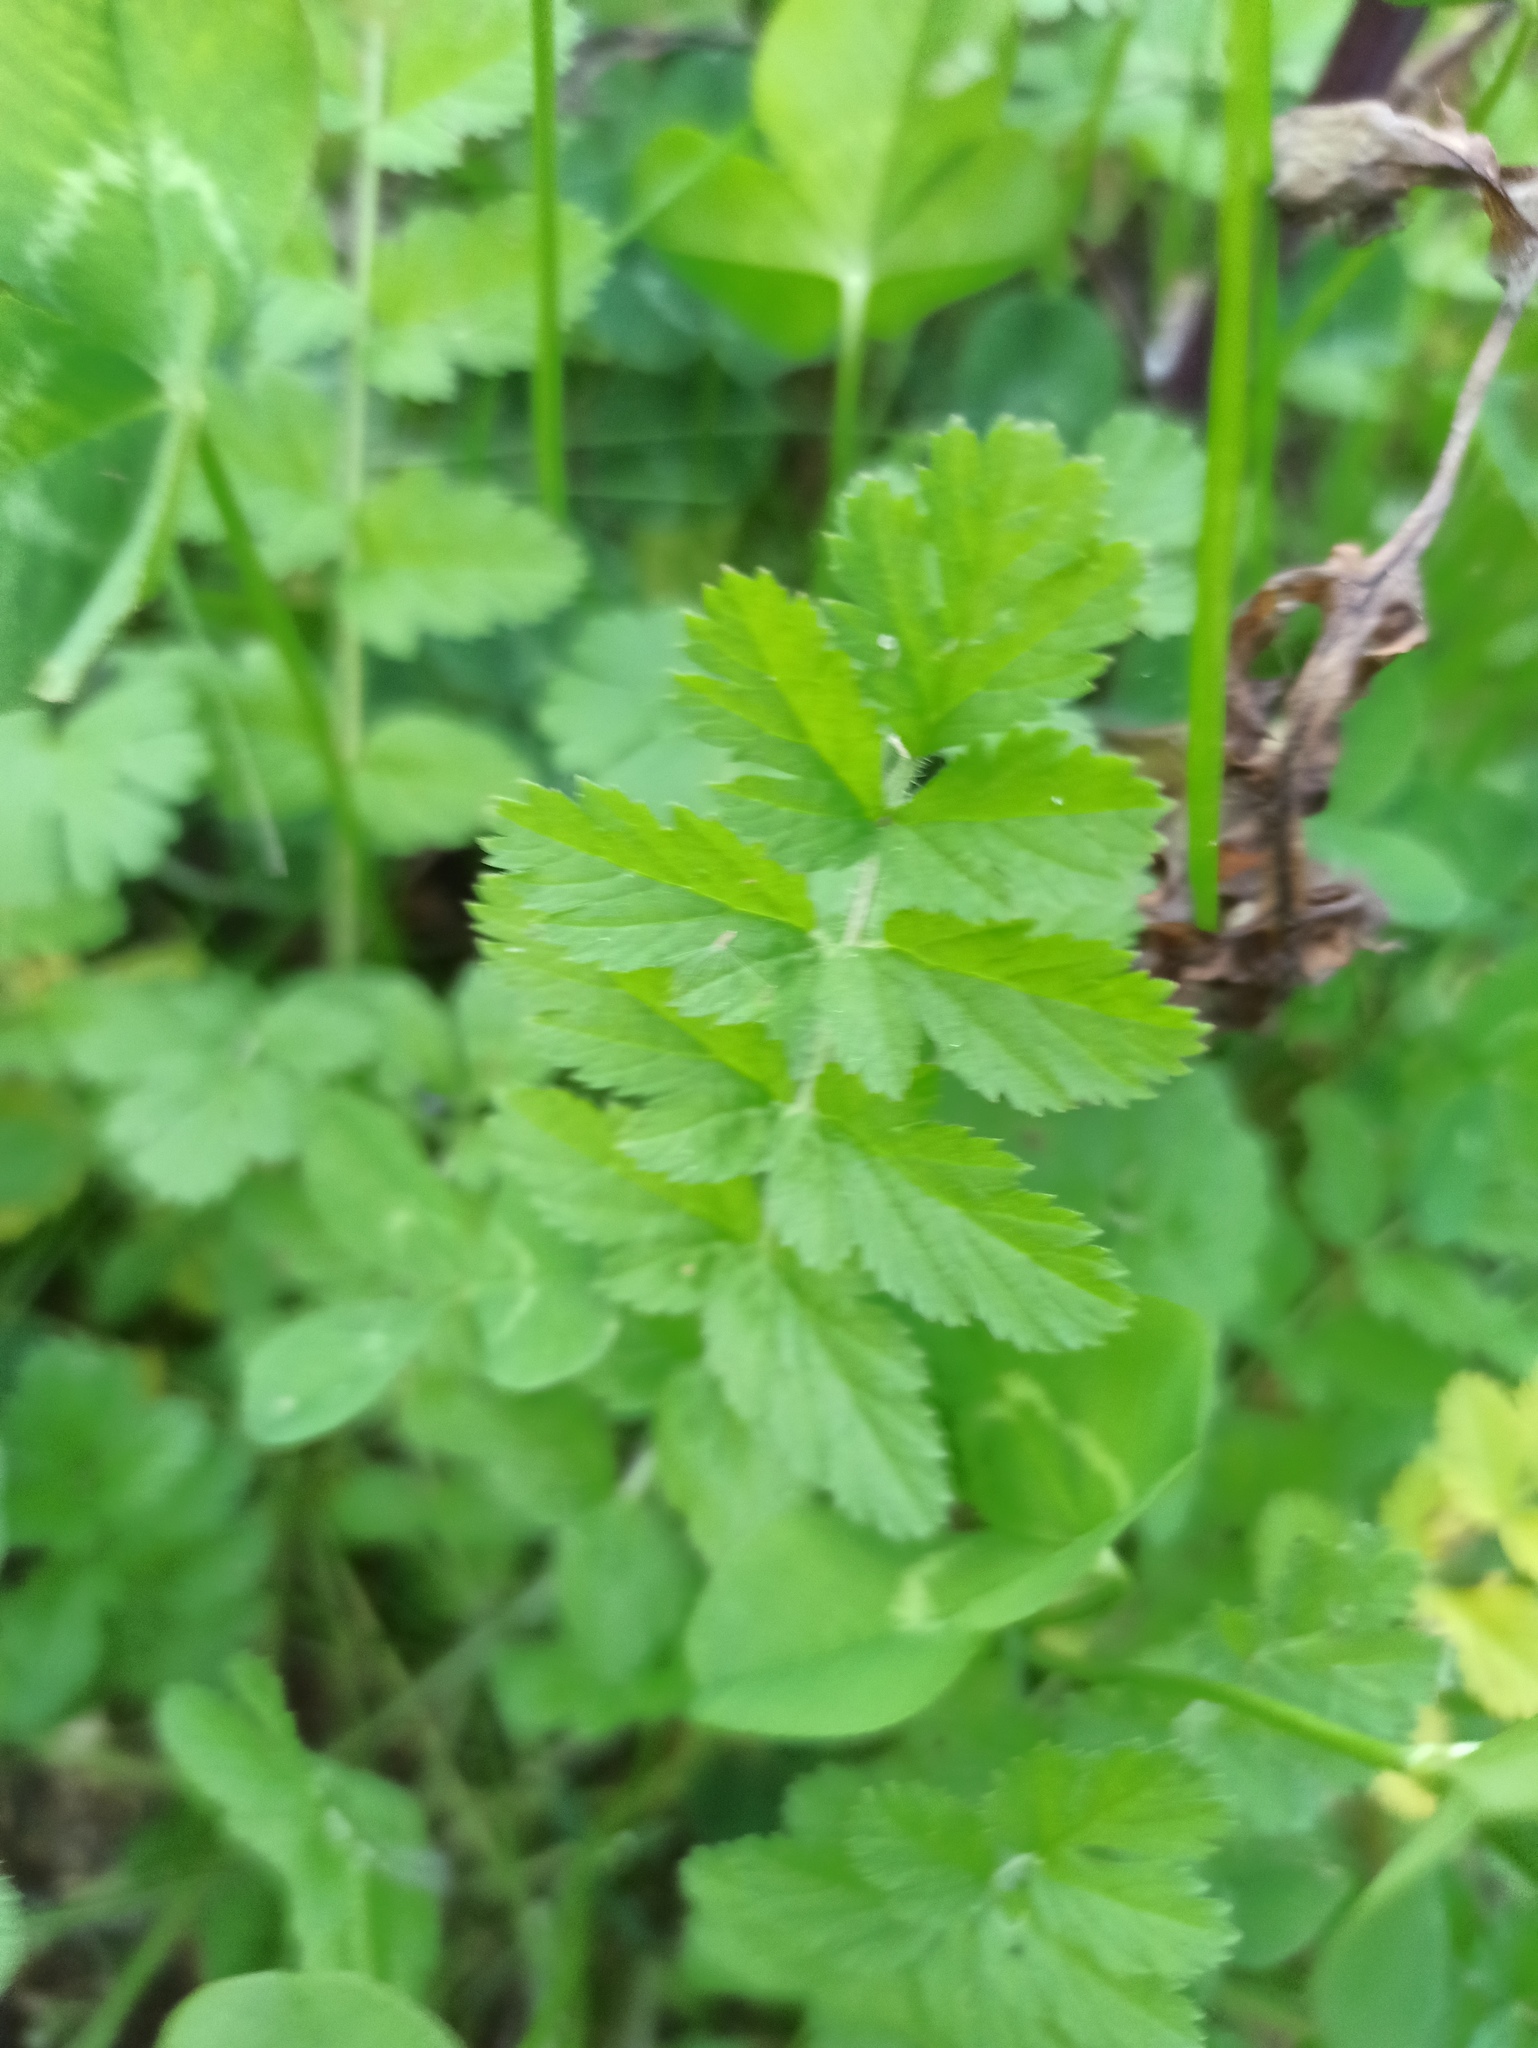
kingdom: Plantae
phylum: Tracheophyta
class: Magnoliopsida
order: Geraniales
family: Geraniaceae
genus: Erodium
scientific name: Erodium moschatum
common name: Musk stork's-bill
